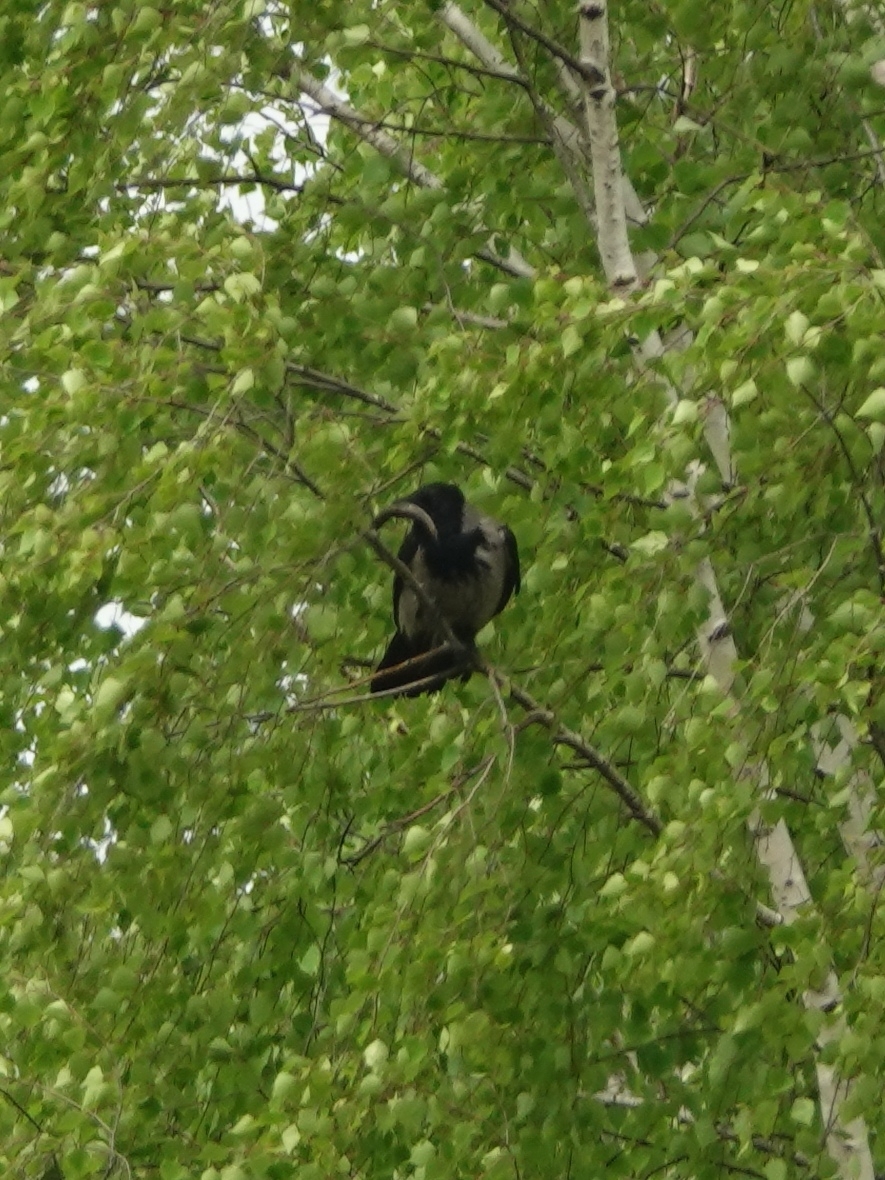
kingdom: Animalia
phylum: Chordata
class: Aves
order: Passeriformes
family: Corvidae
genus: Corvus
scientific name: Corvus cornix
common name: Hooded crow
